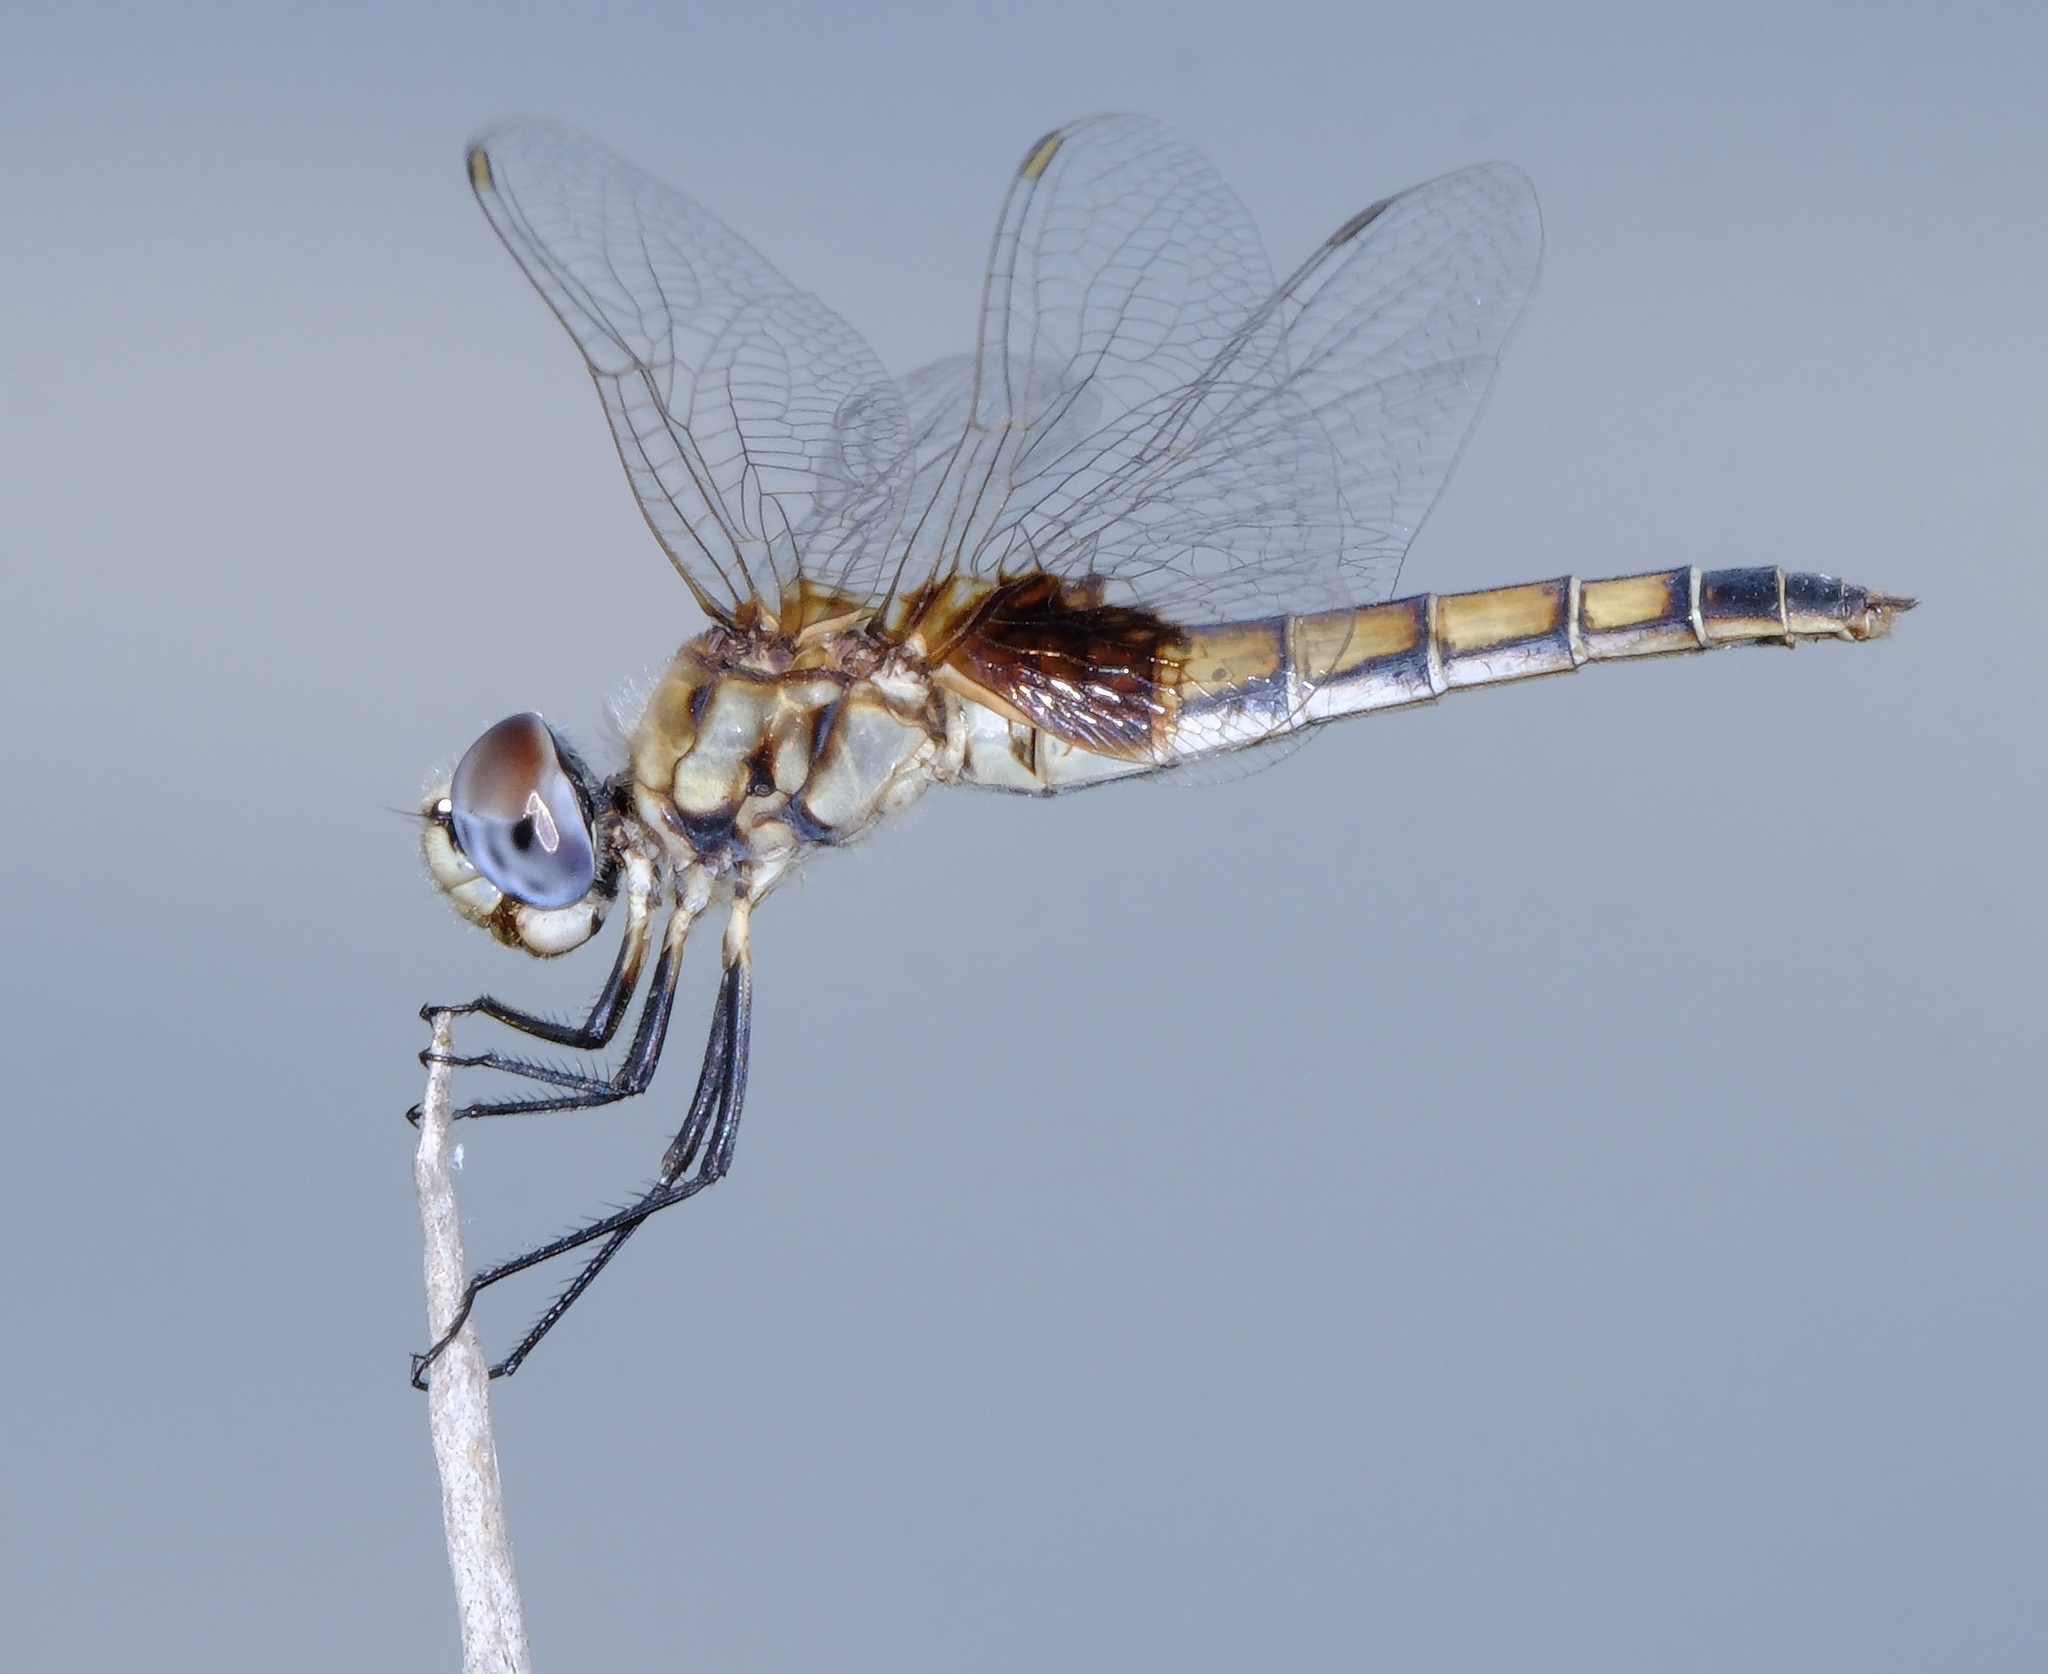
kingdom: Animalia
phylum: Arthropoda
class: Insecta
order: Odonata
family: Libellulidae
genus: Macrodiplax
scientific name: Macrodiplax balteata
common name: Marl pennant
